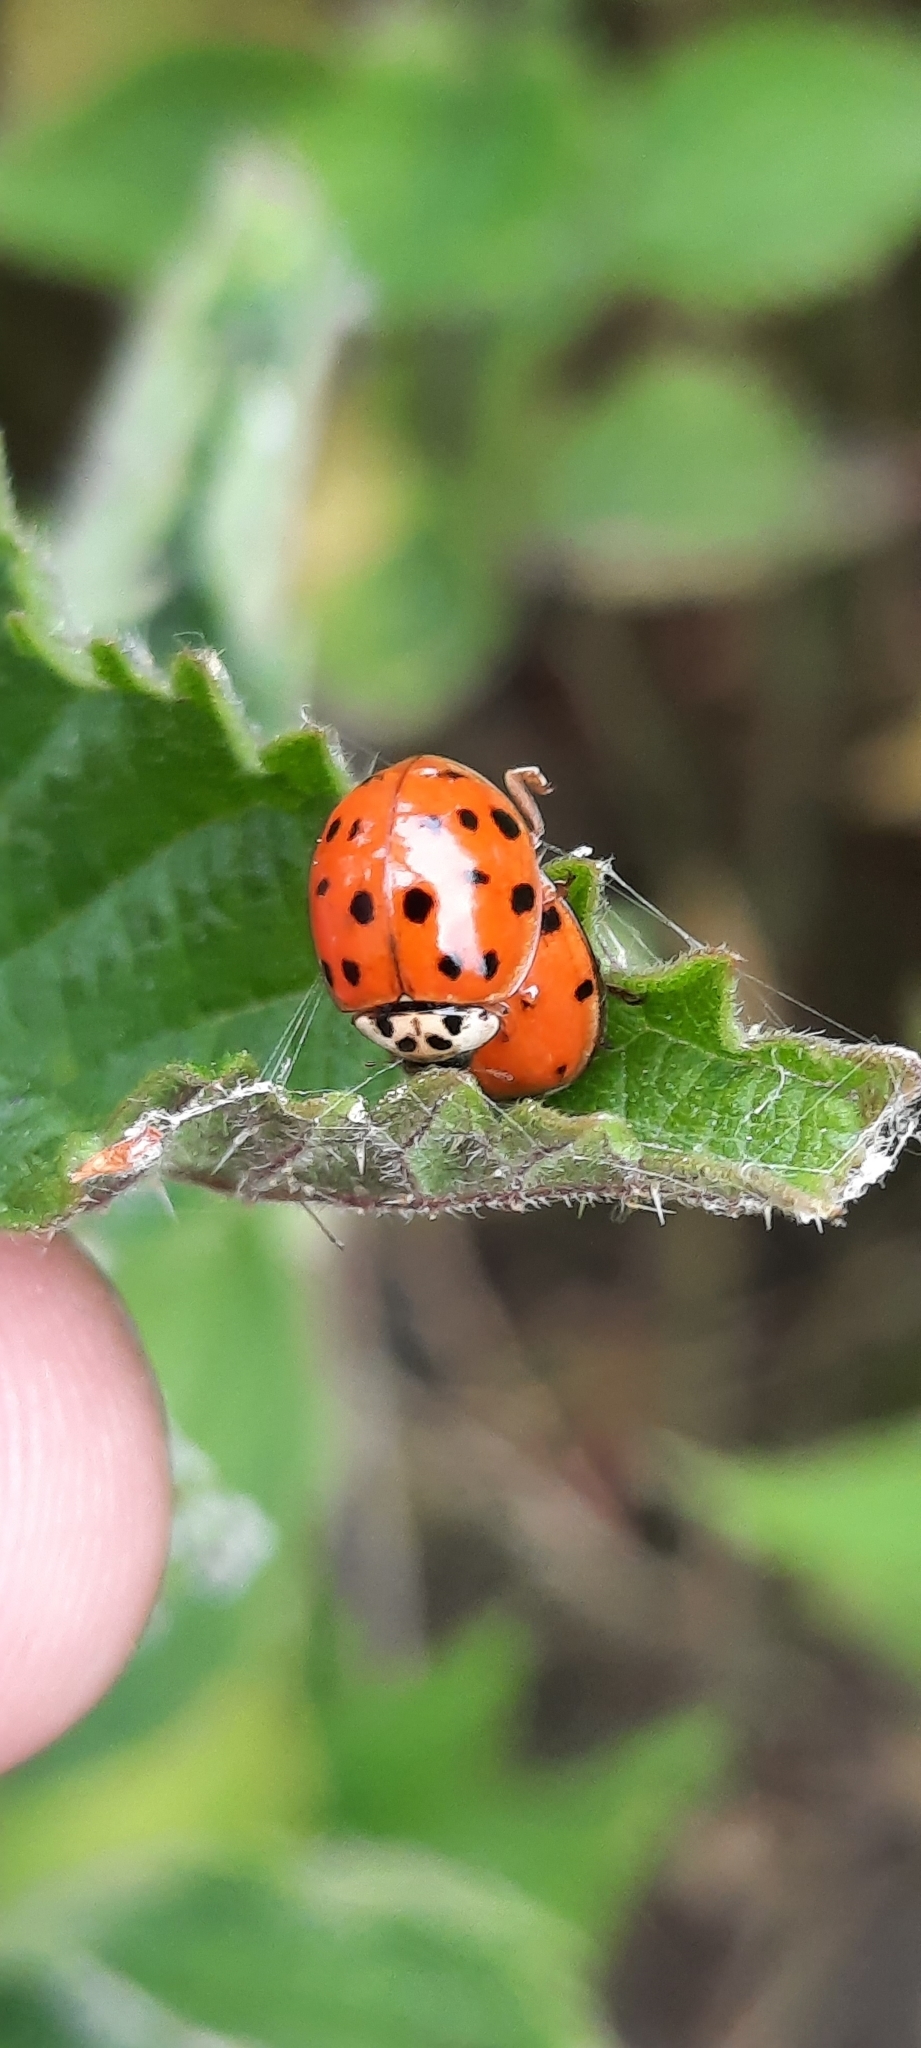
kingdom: Animalia
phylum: Arthropoda
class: Insecta
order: Coleoptera
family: Coccinellidae
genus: Harmonia
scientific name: Harmonia axyridis
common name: Harlequin ladybird
